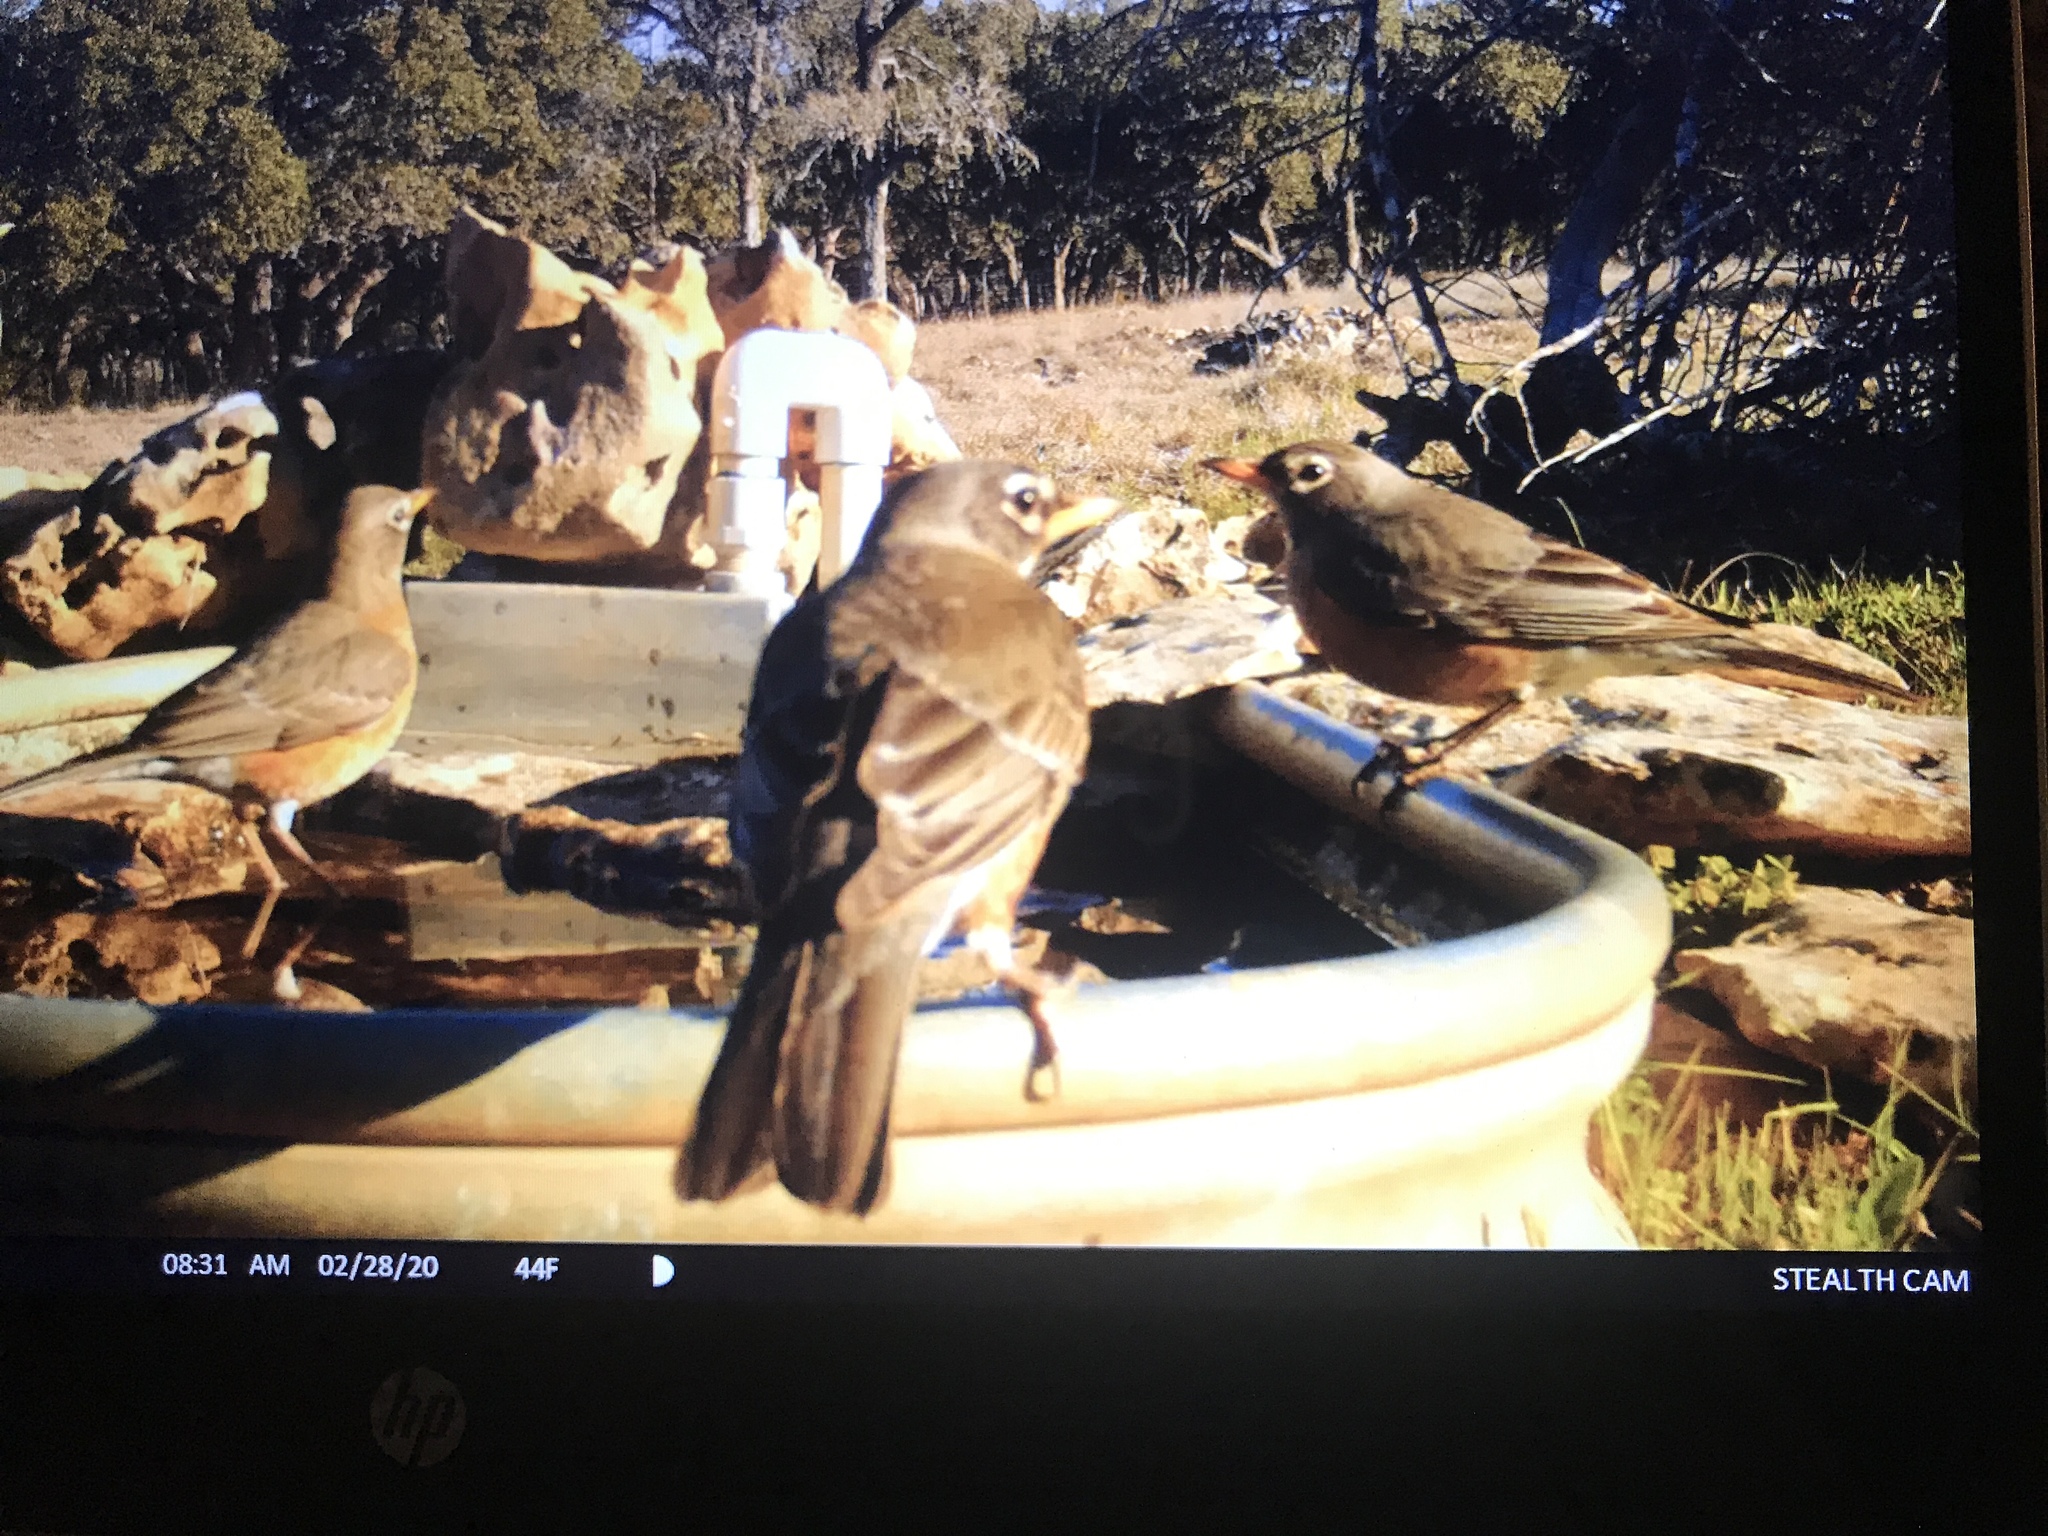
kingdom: Animalia
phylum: Chordata
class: Aves
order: Passeriformes
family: Turdidae
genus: Turdus
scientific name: Turdus migratorius
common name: American robin
